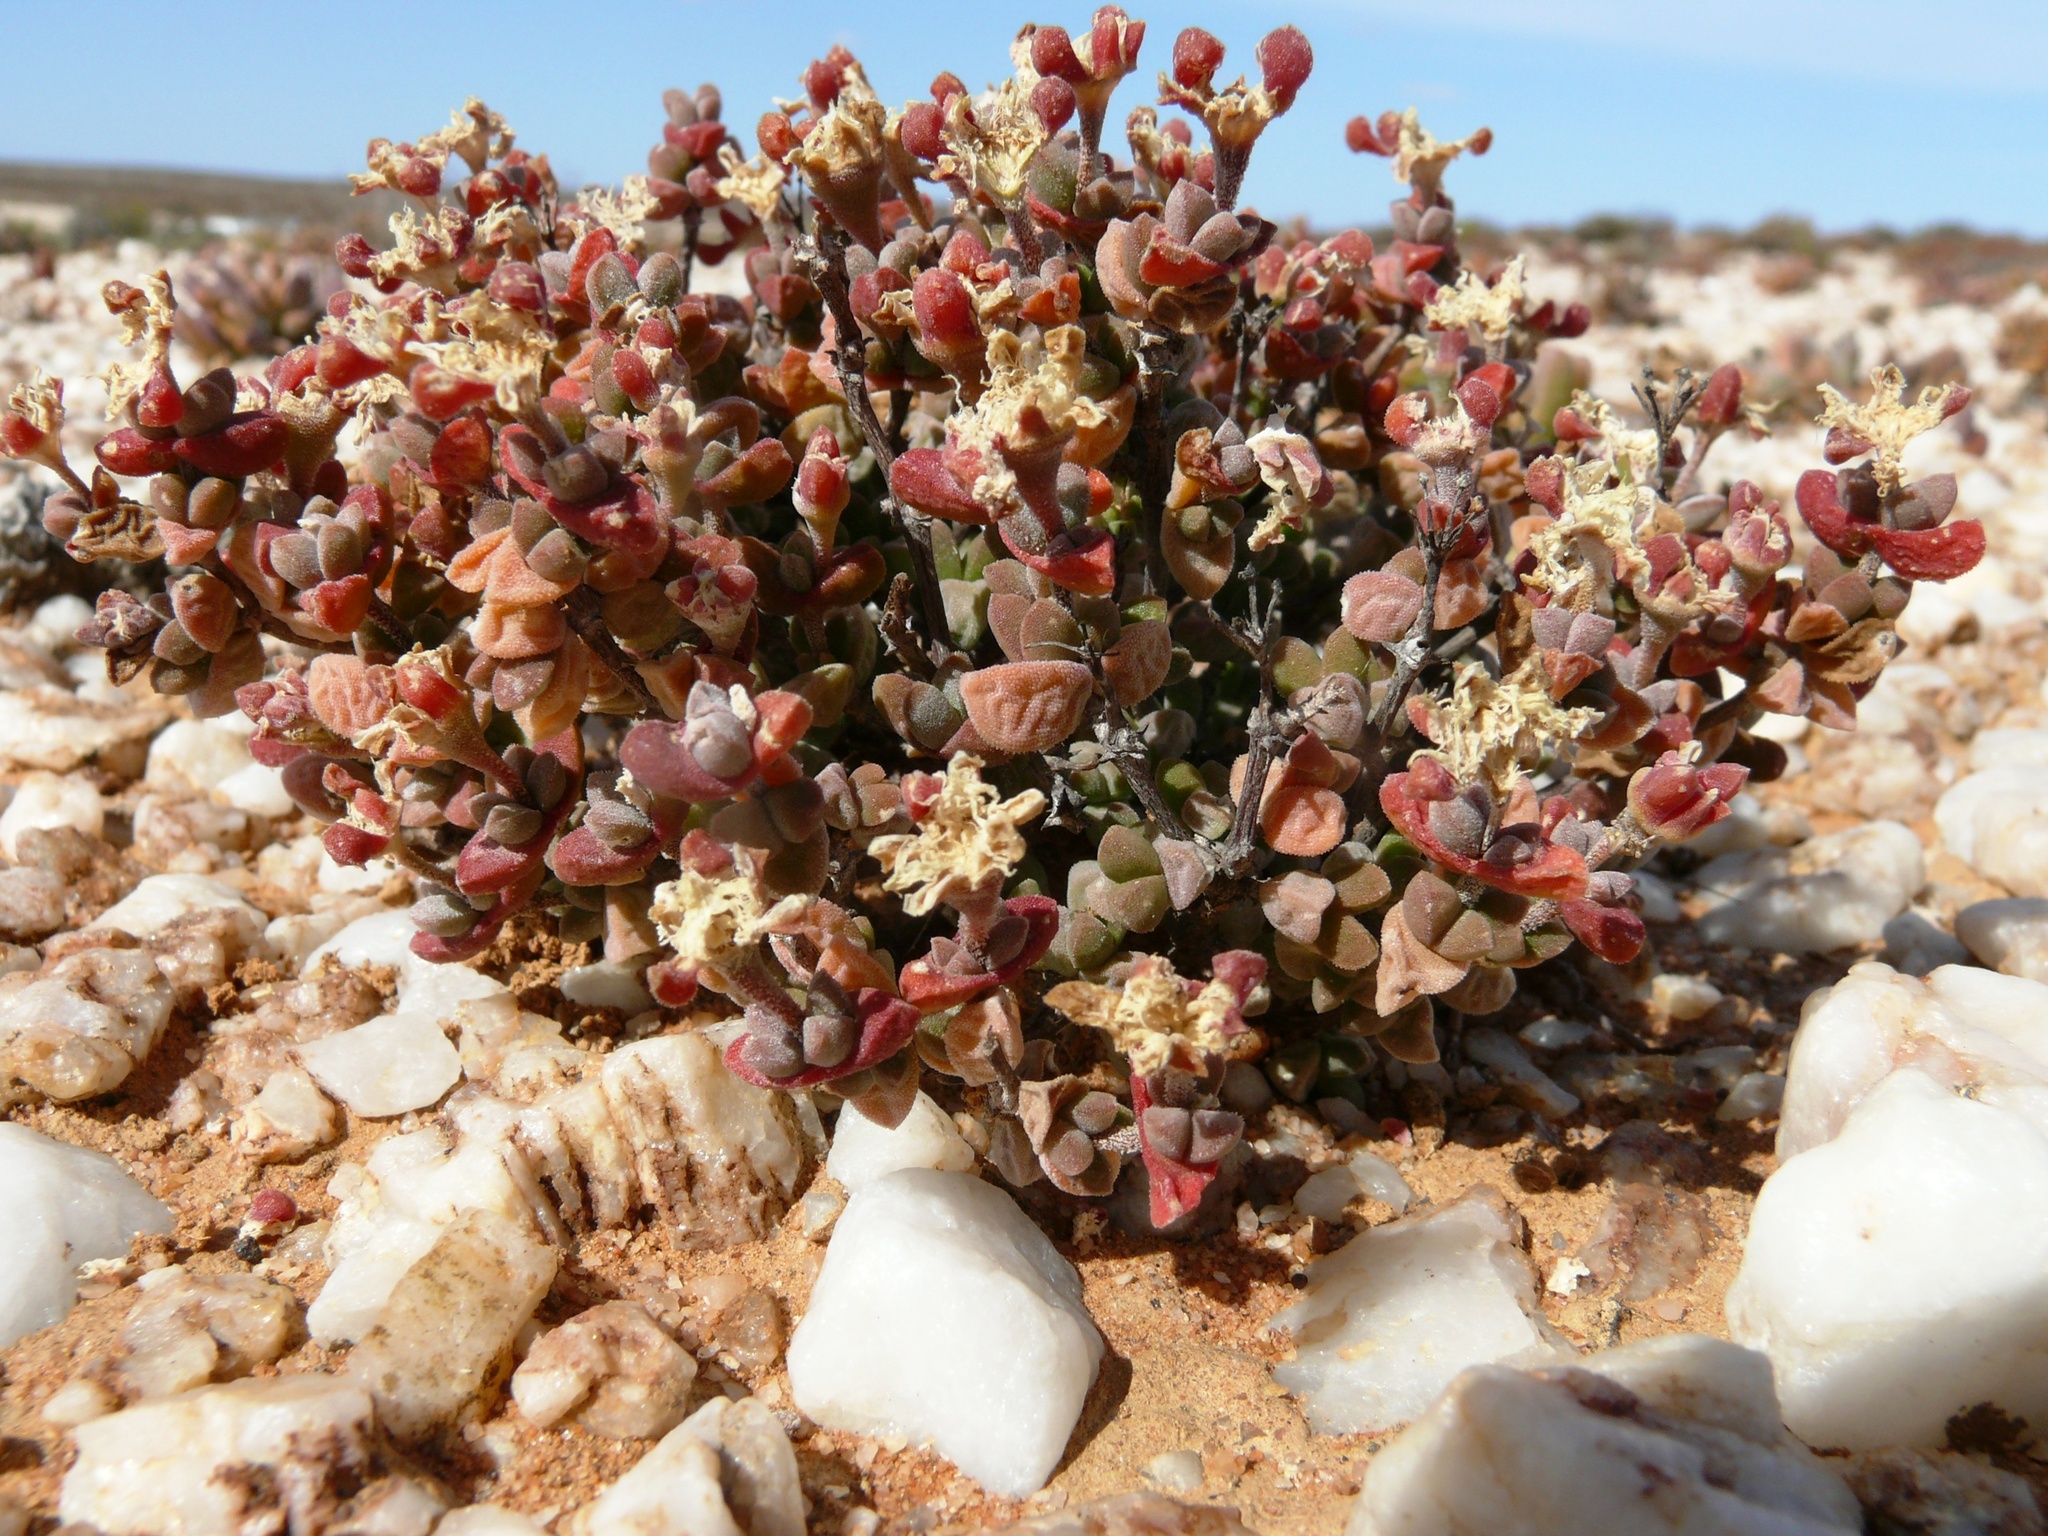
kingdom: Plantae
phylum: Tracheophyta
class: Magnoliopsida
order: Caryophyllales
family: Aizoaceae
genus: Drosanthemopsis
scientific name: Drosanthemopsis diversifolia
